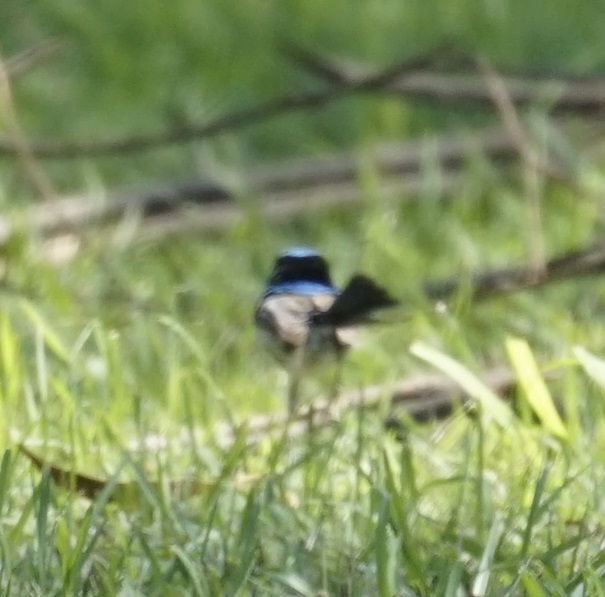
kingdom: Animalia
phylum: Chordata
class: Aves
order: Passeriformes
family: Maluridae
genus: Malurus
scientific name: Malurus cyaneus
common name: Superb fairywren
